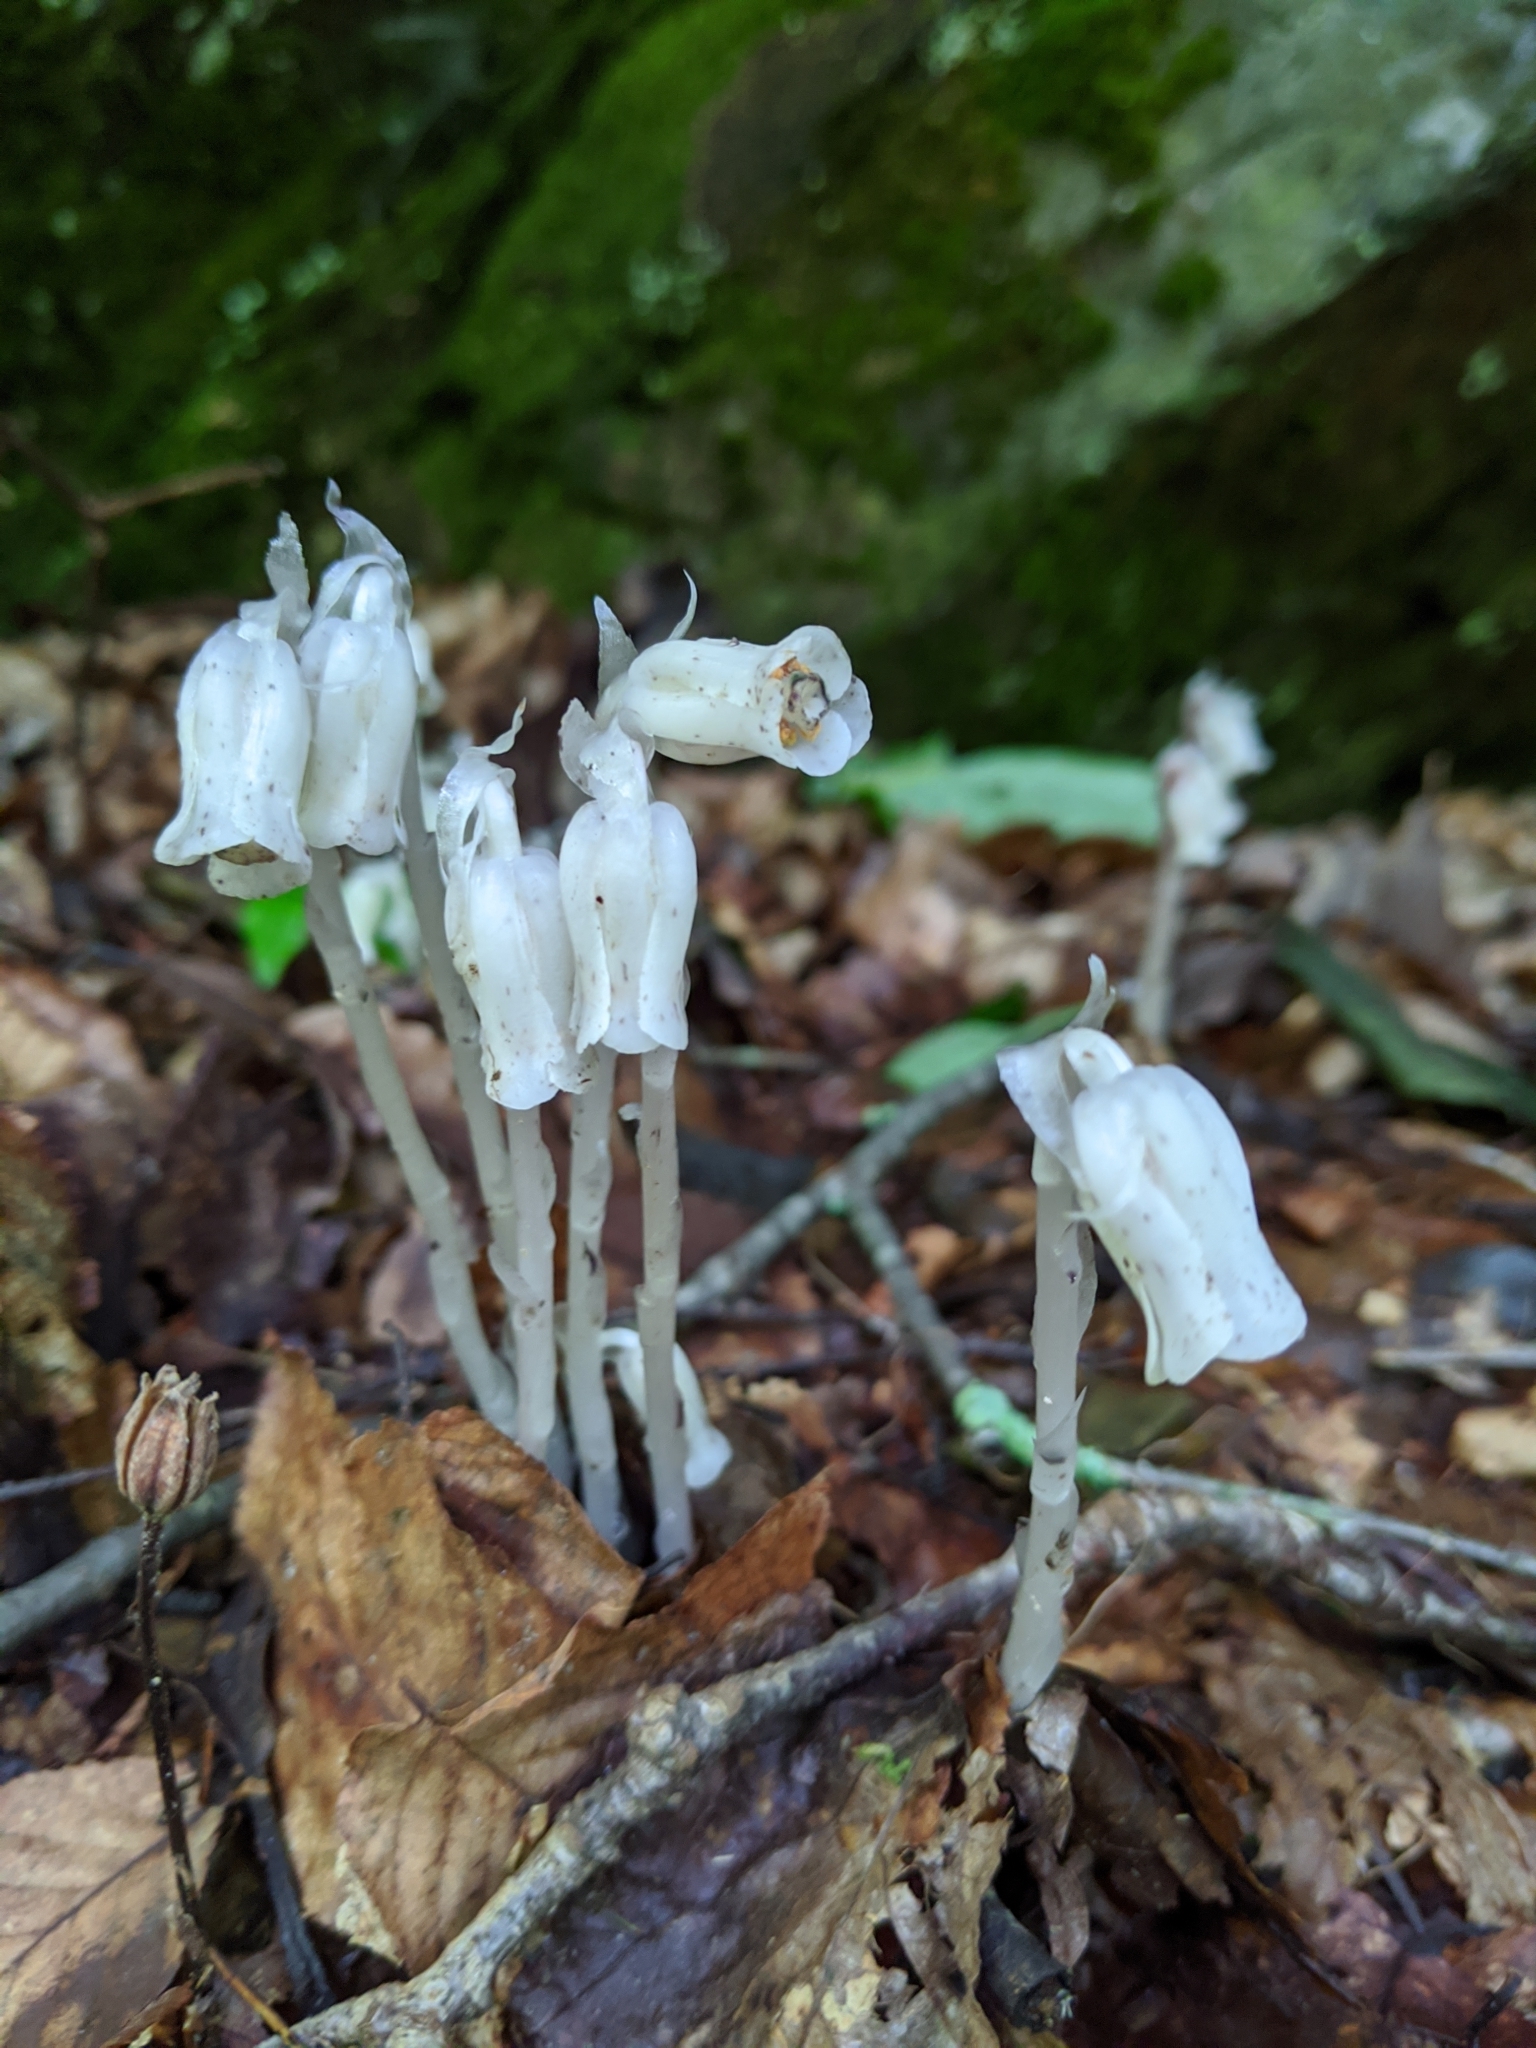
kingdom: Plantae
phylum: Tracheophyta
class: Magnoliopsida
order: Ericales
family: Ericaceae
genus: Monotropa
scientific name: Monotropa uniflora
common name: Convulsion root
